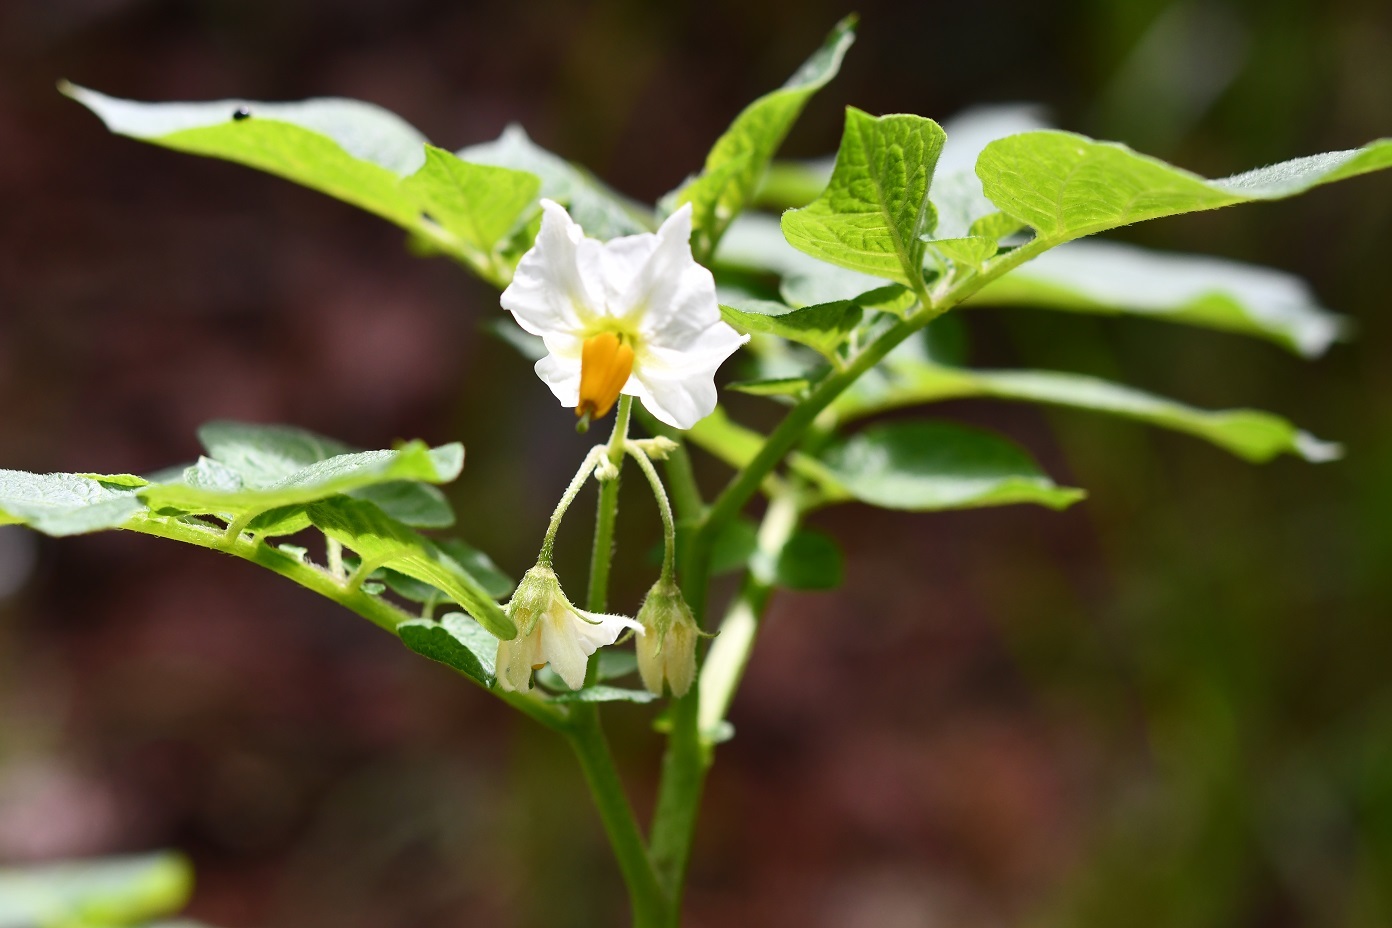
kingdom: Plantae
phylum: Tracheophyta
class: Magnoliopsida
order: Solanales
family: Solanaceae
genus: Solanum
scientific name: Solanum tuberosum
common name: Potato
